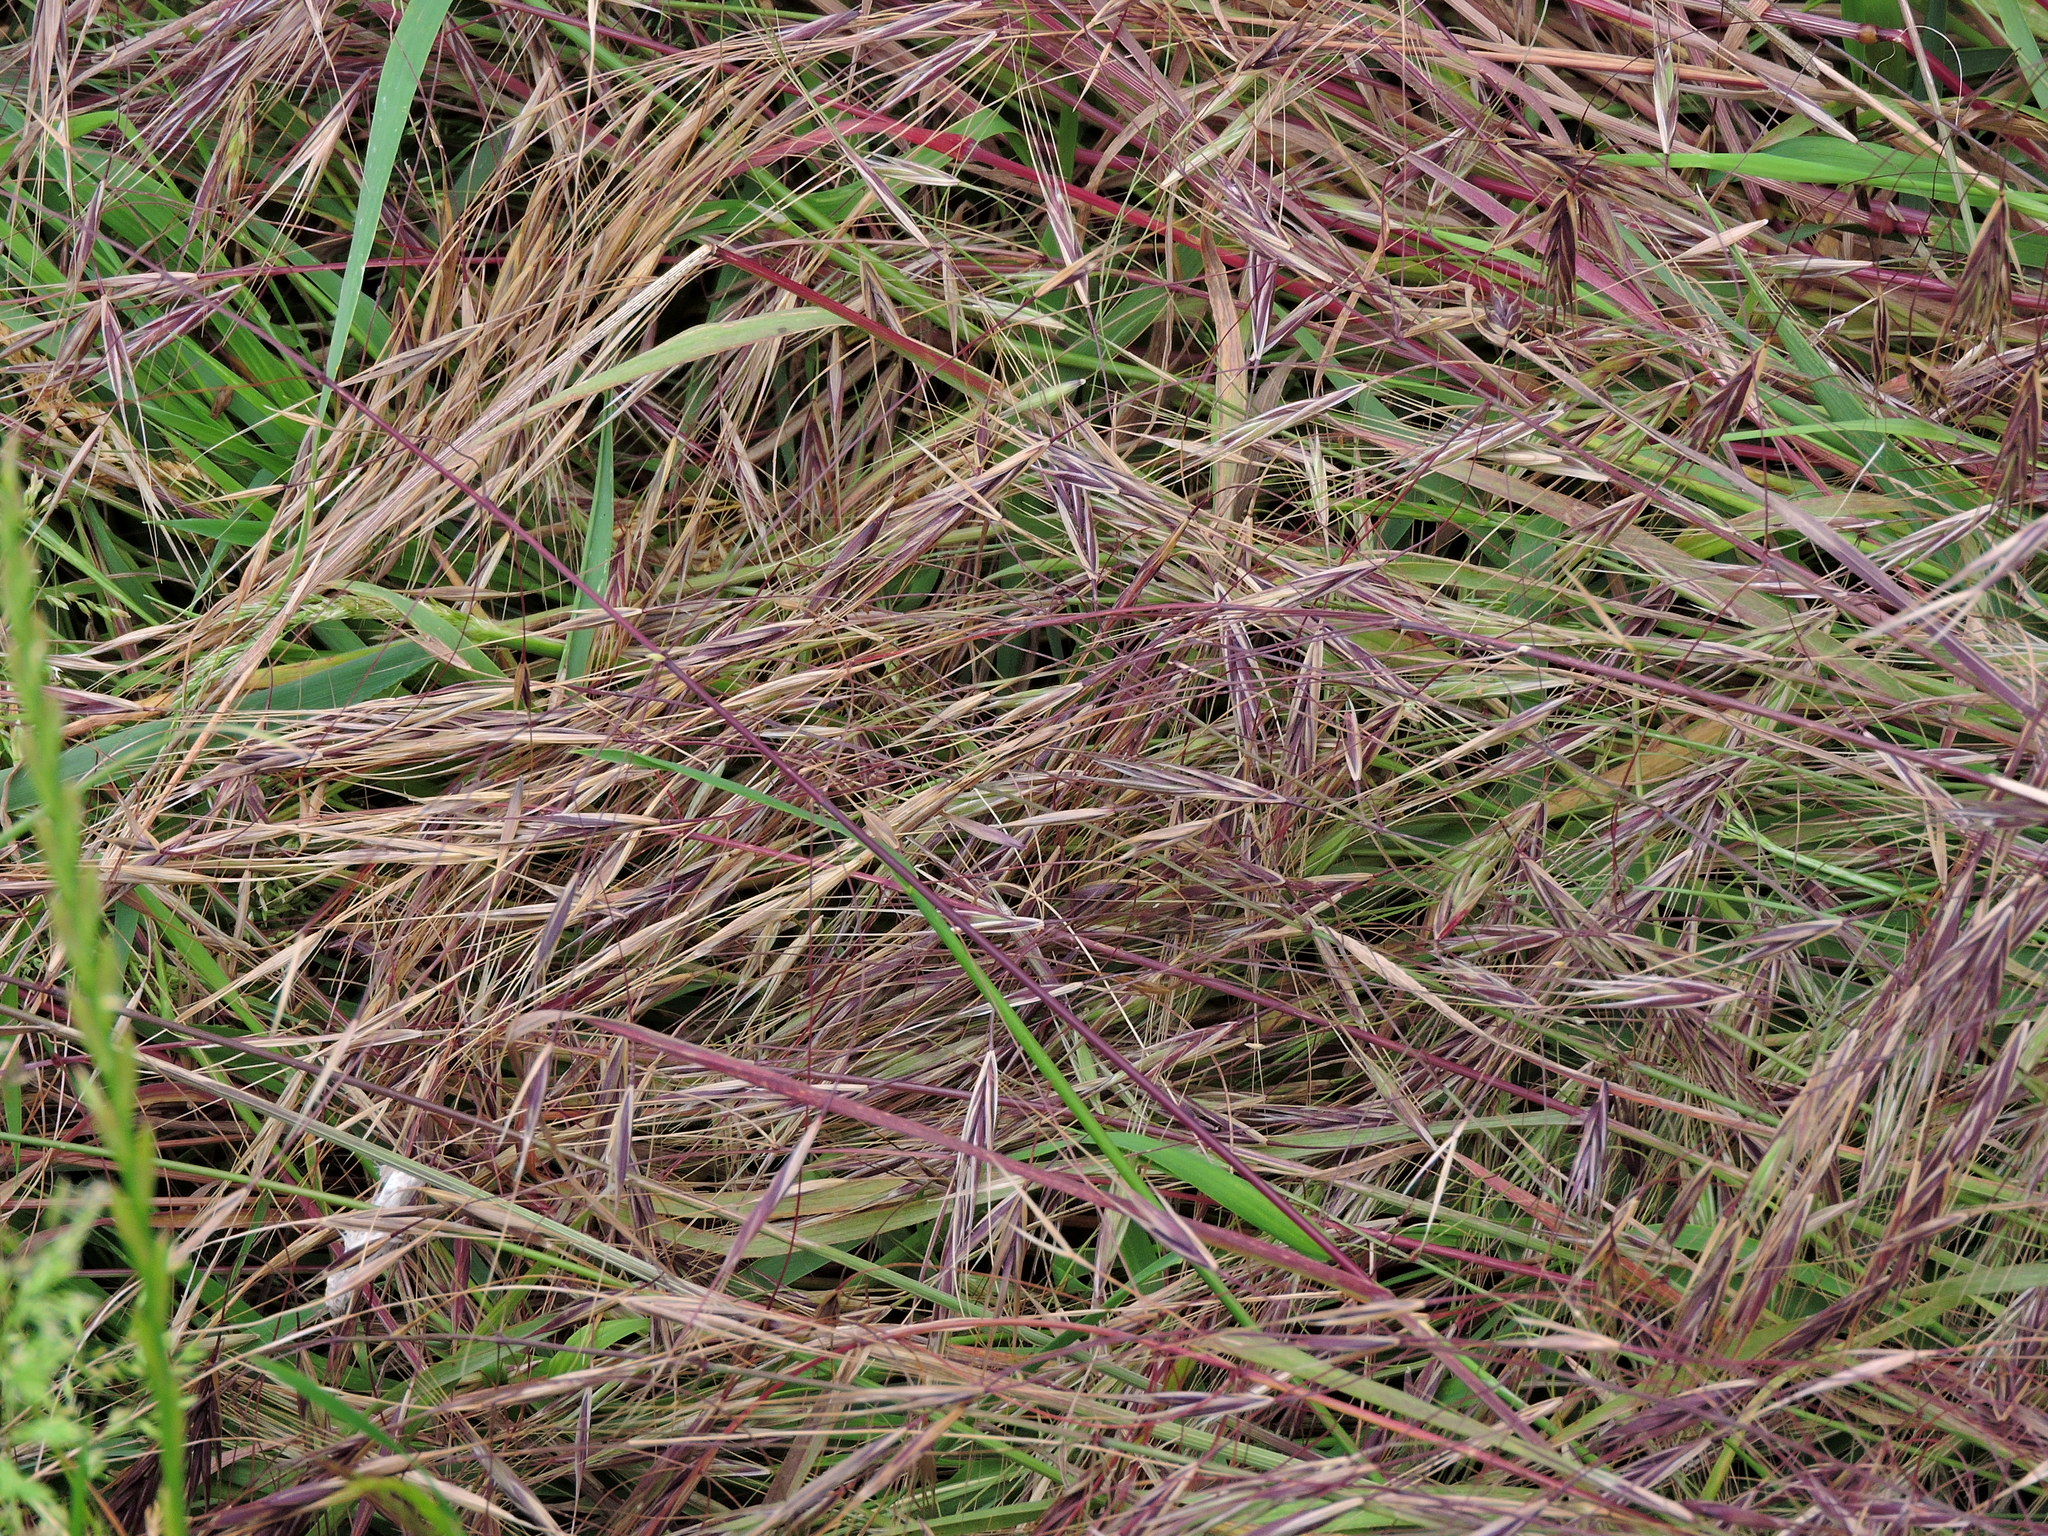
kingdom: Plantae
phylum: Tracheophyta
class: Liliopsida
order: Poales
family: Poaceae
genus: Bromus
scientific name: Bromus sterilis
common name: Poverty brome
